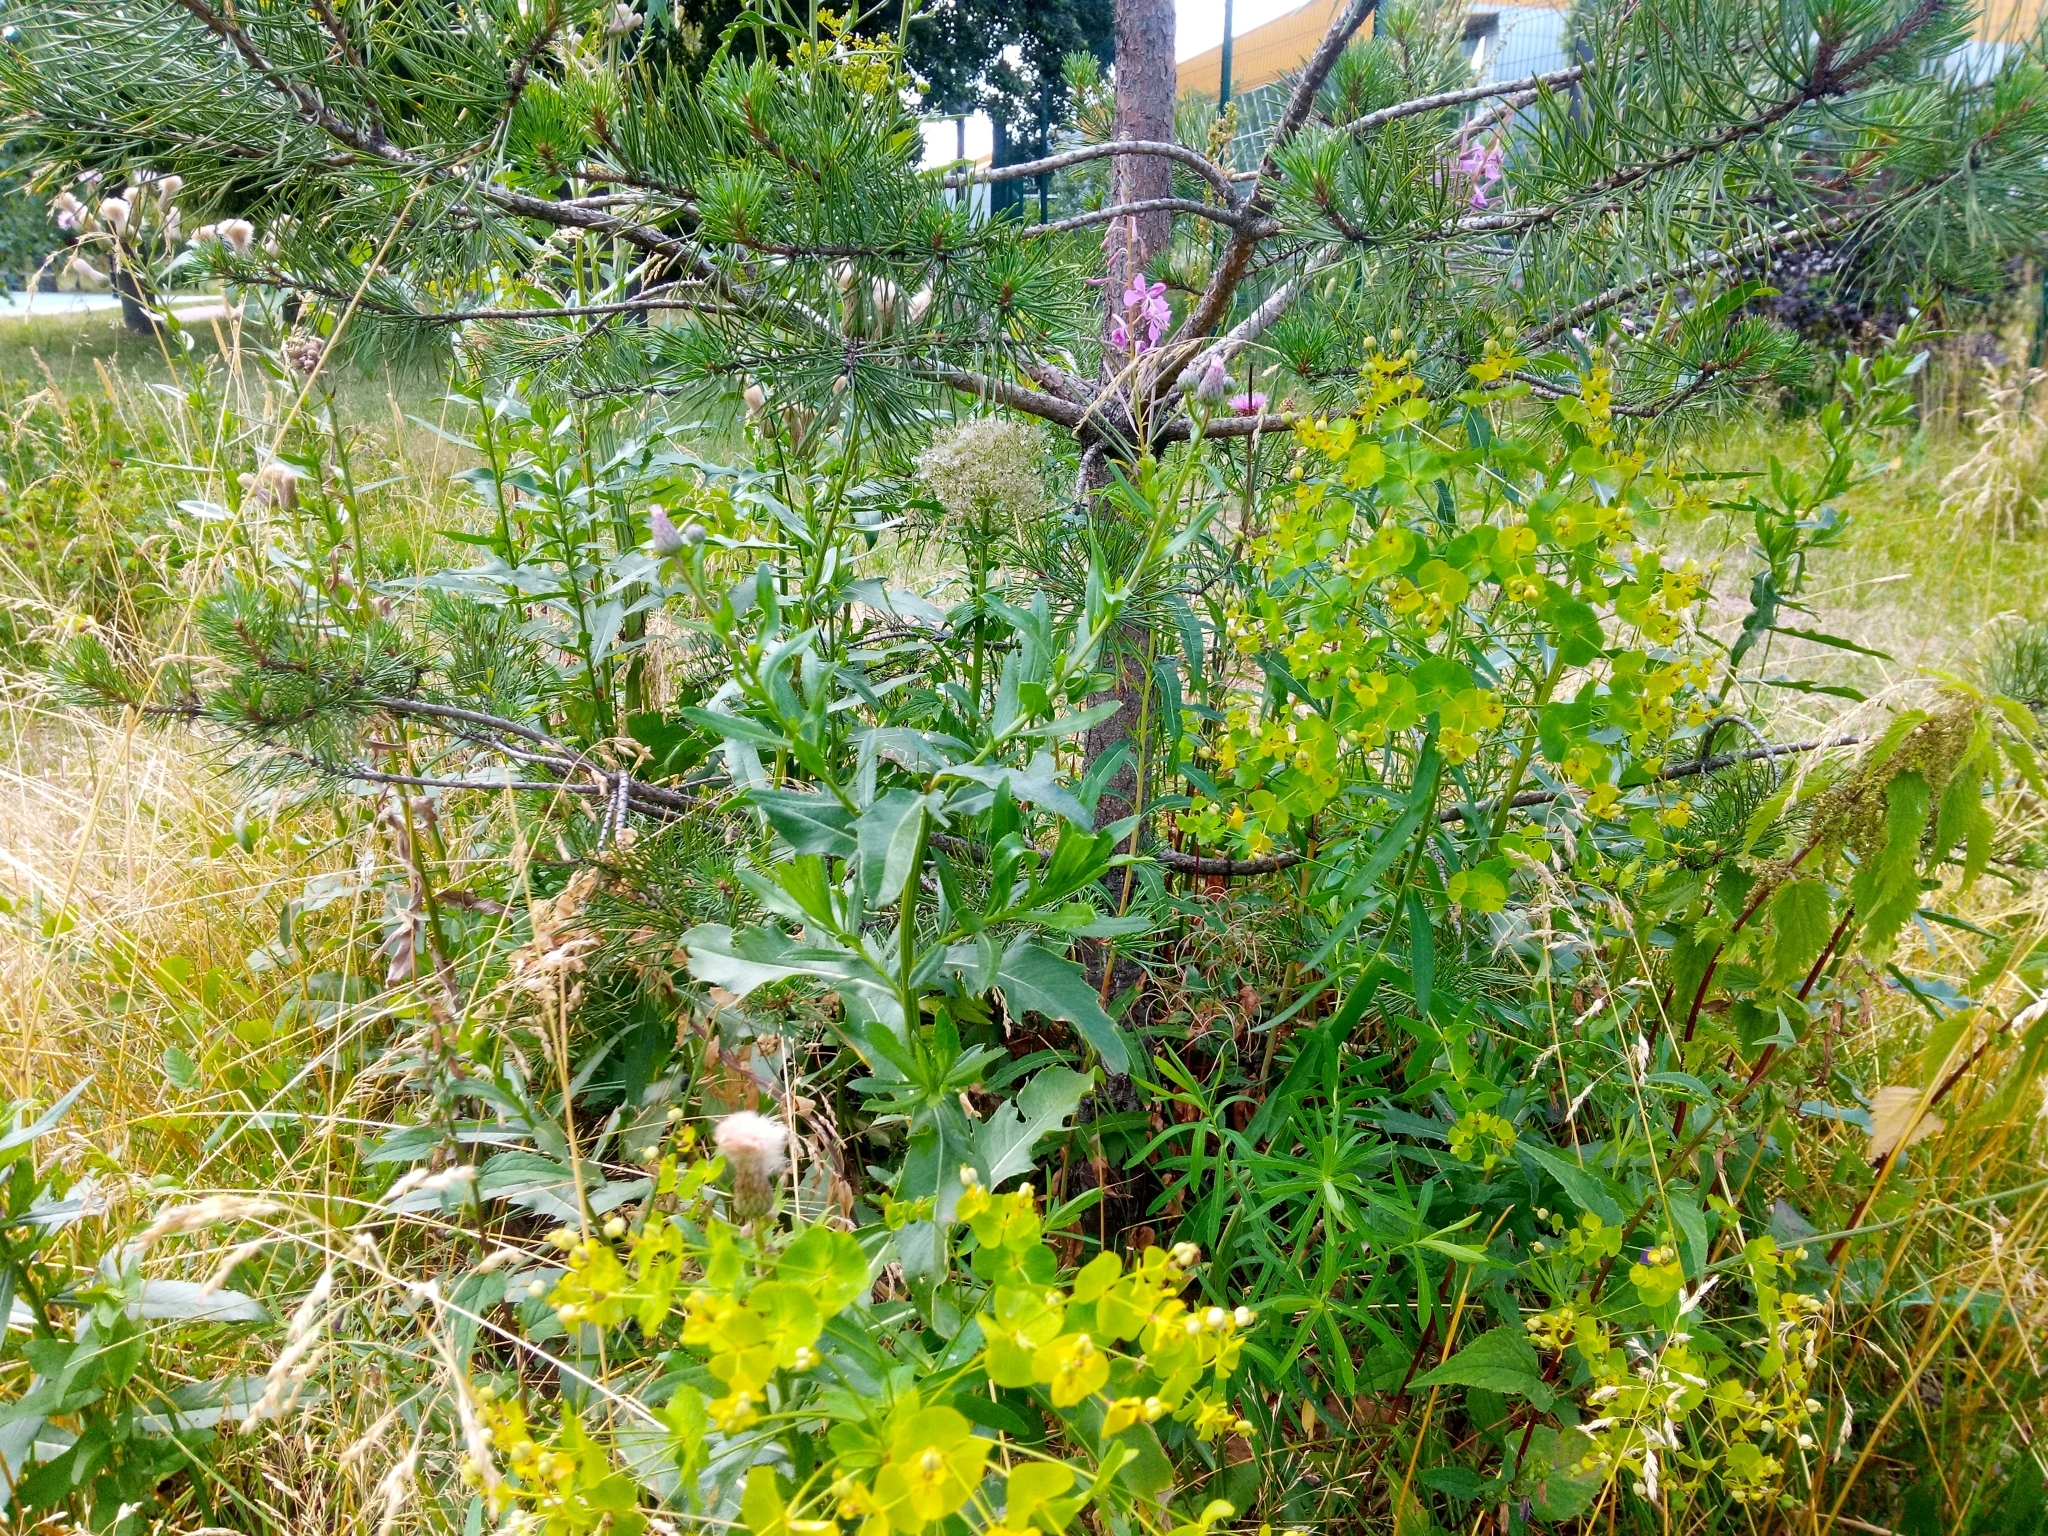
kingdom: Plantae
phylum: Tracheophyta
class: Magnoliopsida
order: Malpighiales
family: Euphorbiaceae
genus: Euphorbia
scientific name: Euphorbia virgata
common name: Leafy spurge
